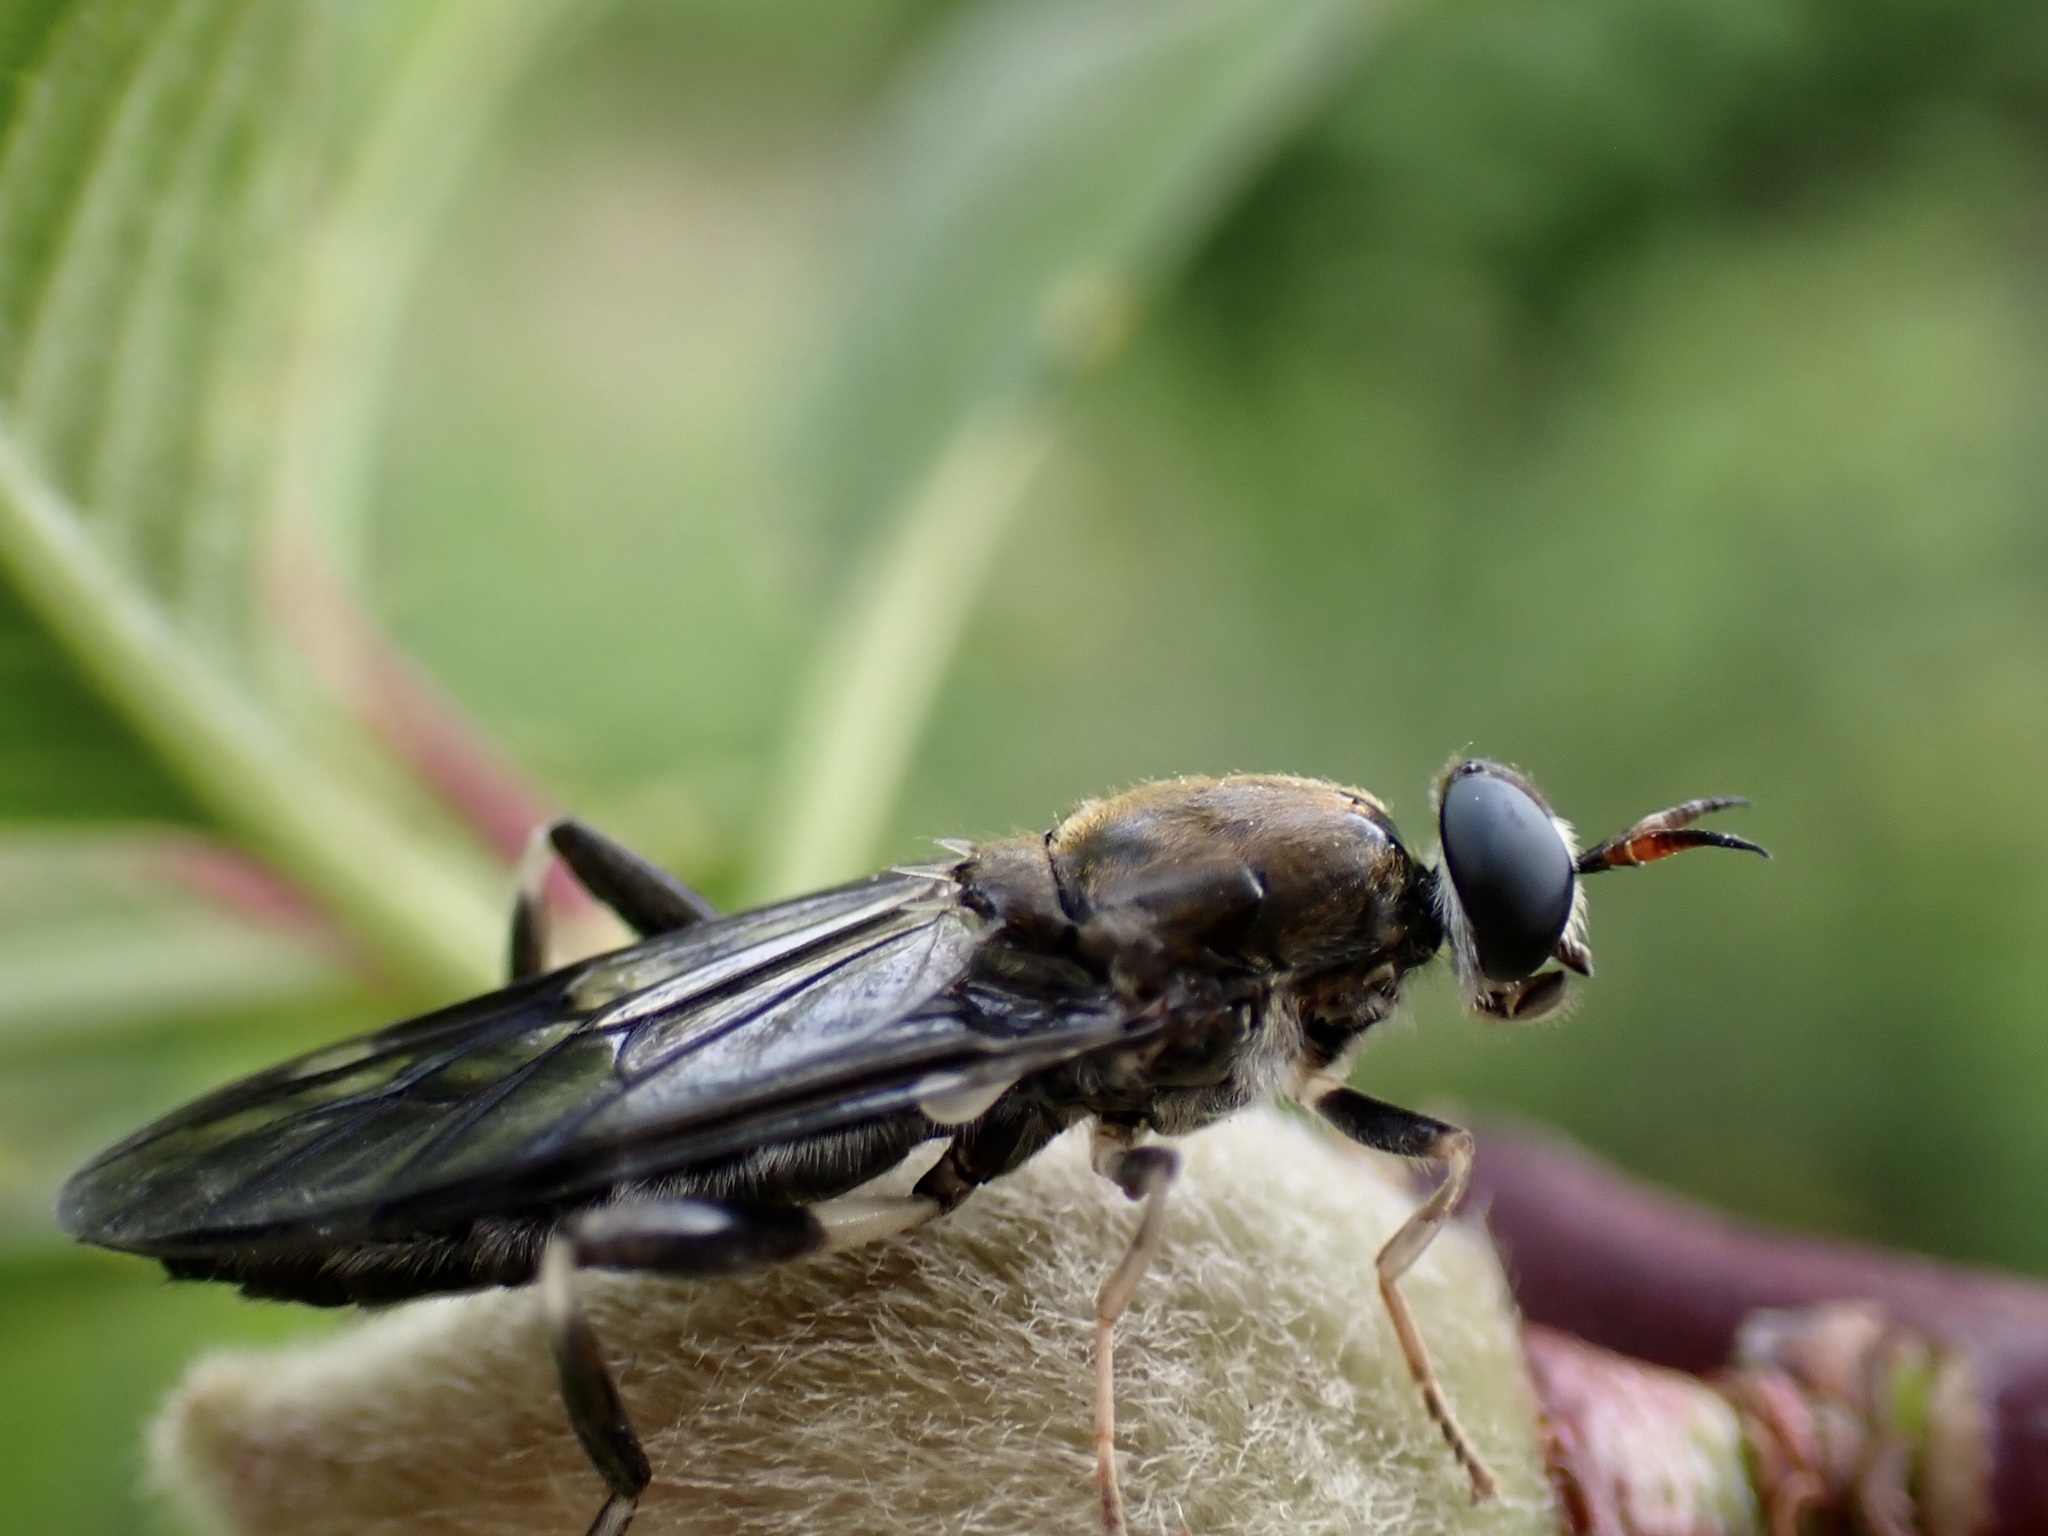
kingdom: Animalia
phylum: Arthropoda
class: Insecta
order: Diptera
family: Stratiomyidae
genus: Exaireta
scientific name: Exaireta spinigera
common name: Blue soldier fly
